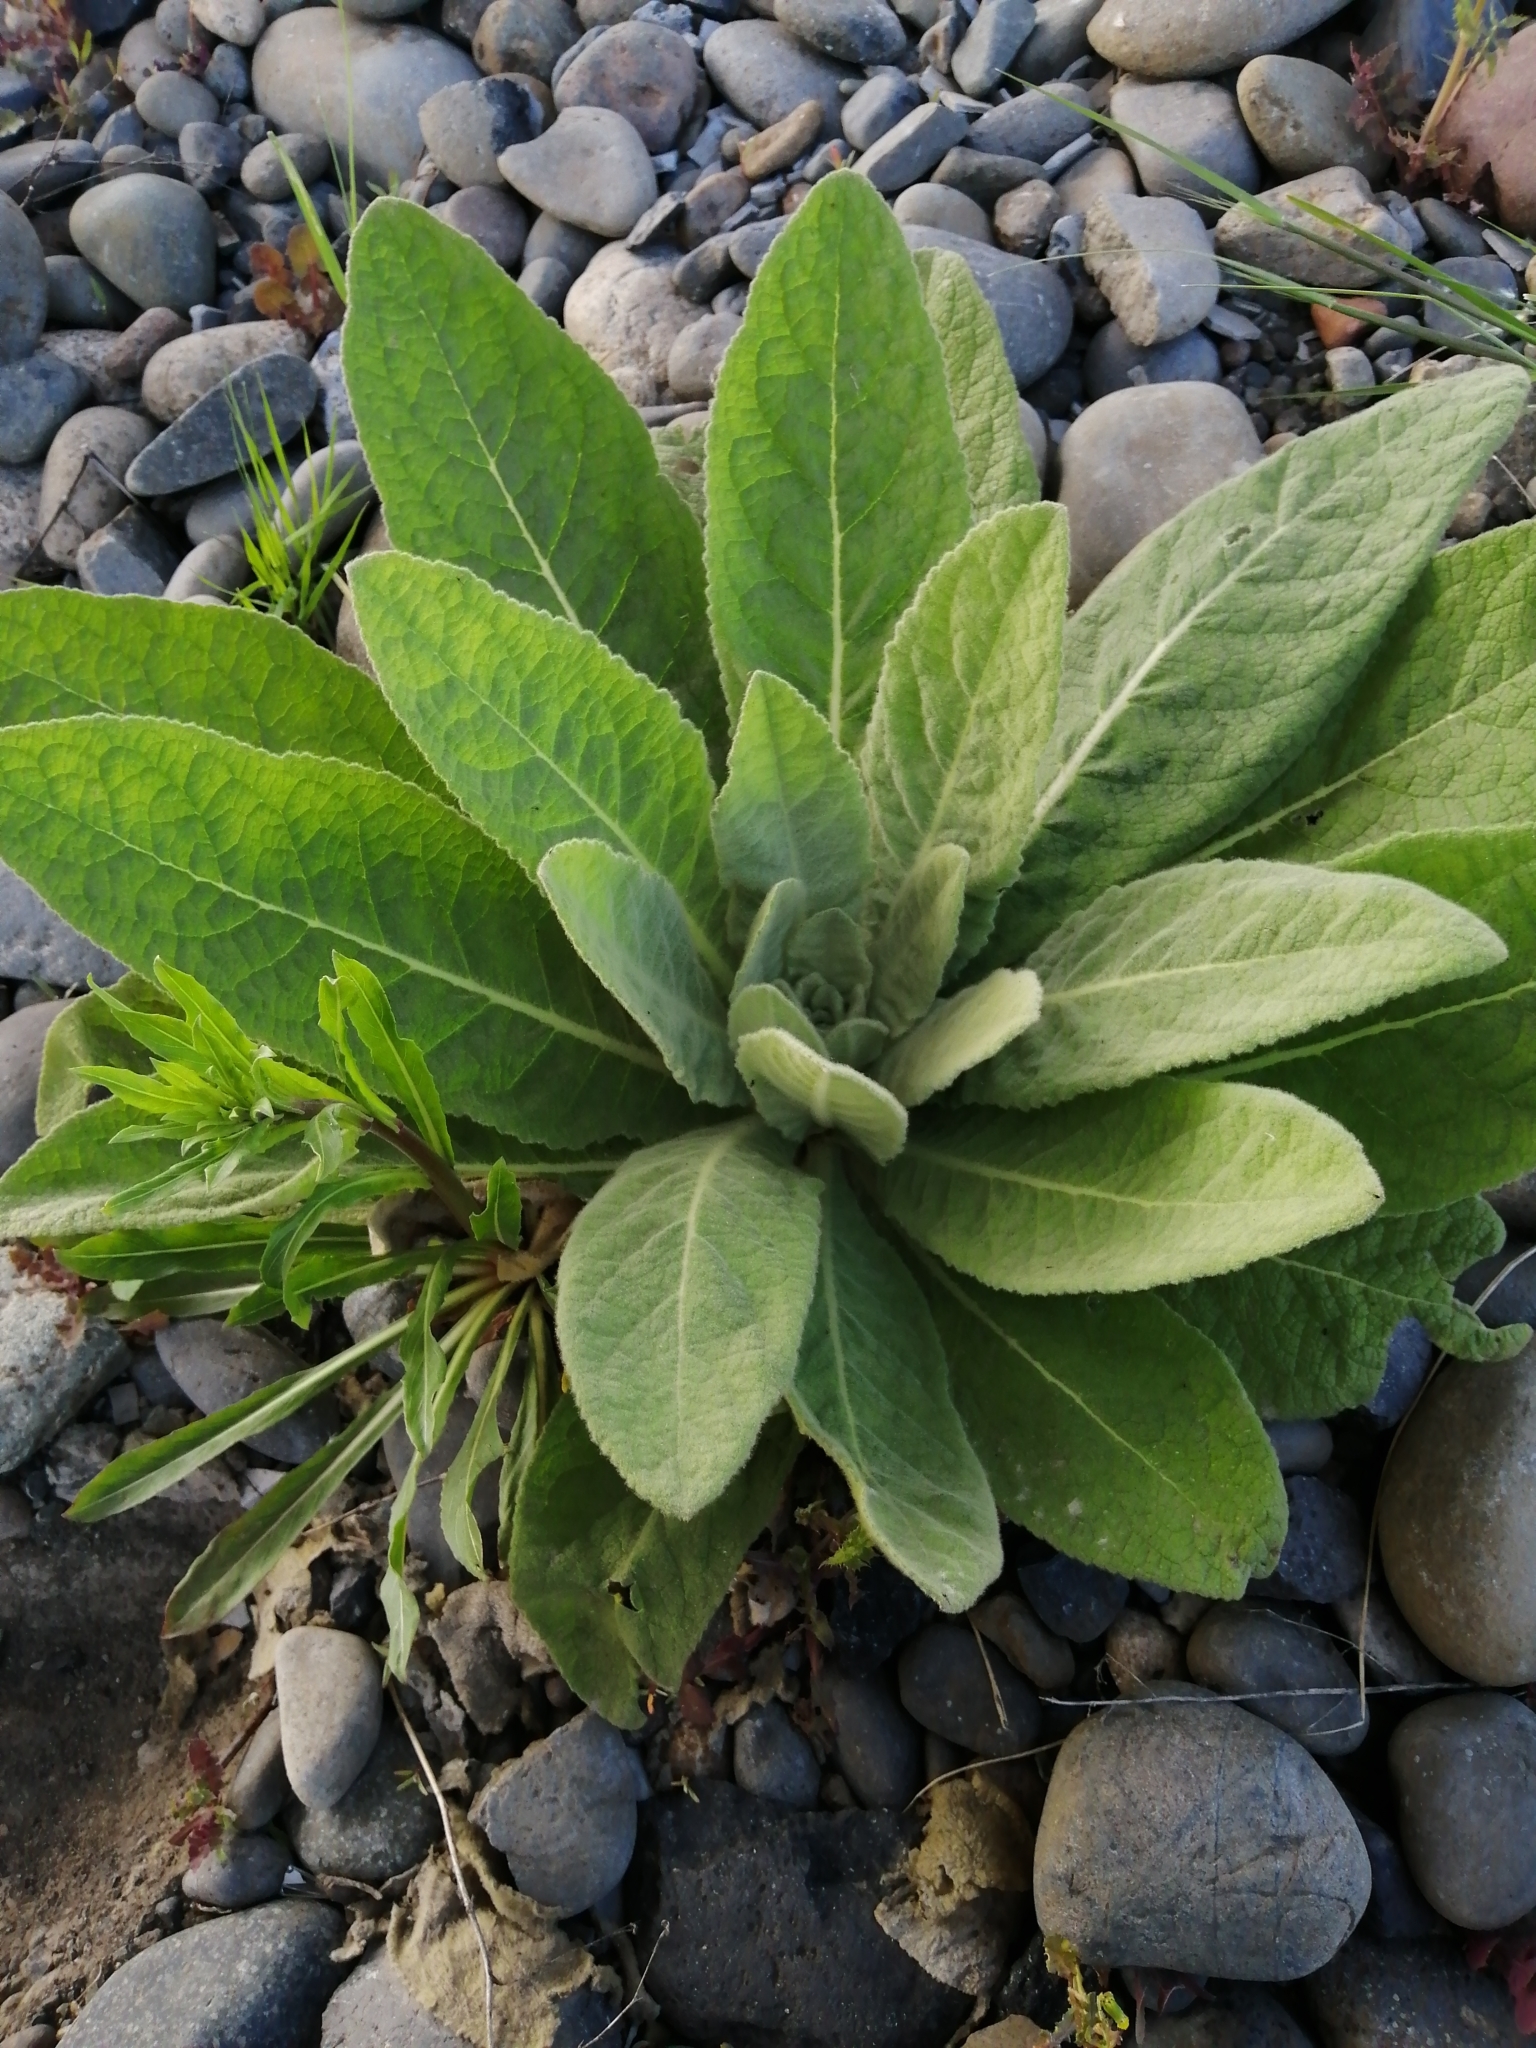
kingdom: Plantae
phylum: Tracheophyta
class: Magnoliopsida
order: Lamiales
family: Scrophulariaceae
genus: Verbascum
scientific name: Verbascum thapsus
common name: Common mullein
